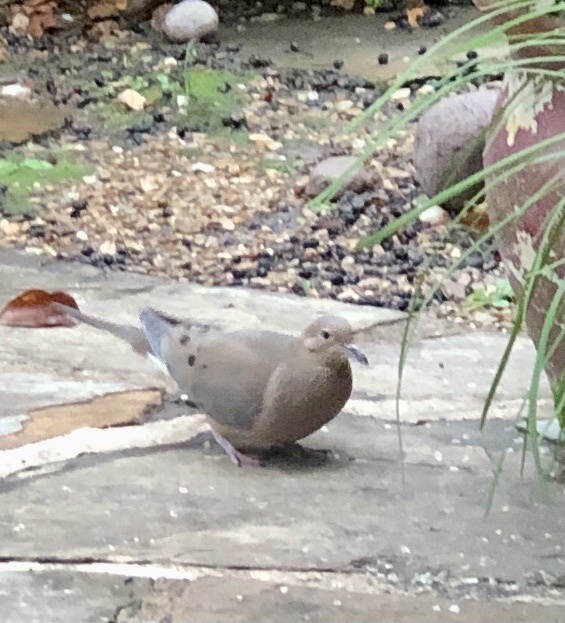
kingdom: Animalia
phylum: Chordata
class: Aves
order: Columbiformes
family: Columbidae
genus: Zenaida
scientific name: Zenaida macroura
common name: Mourning dove
